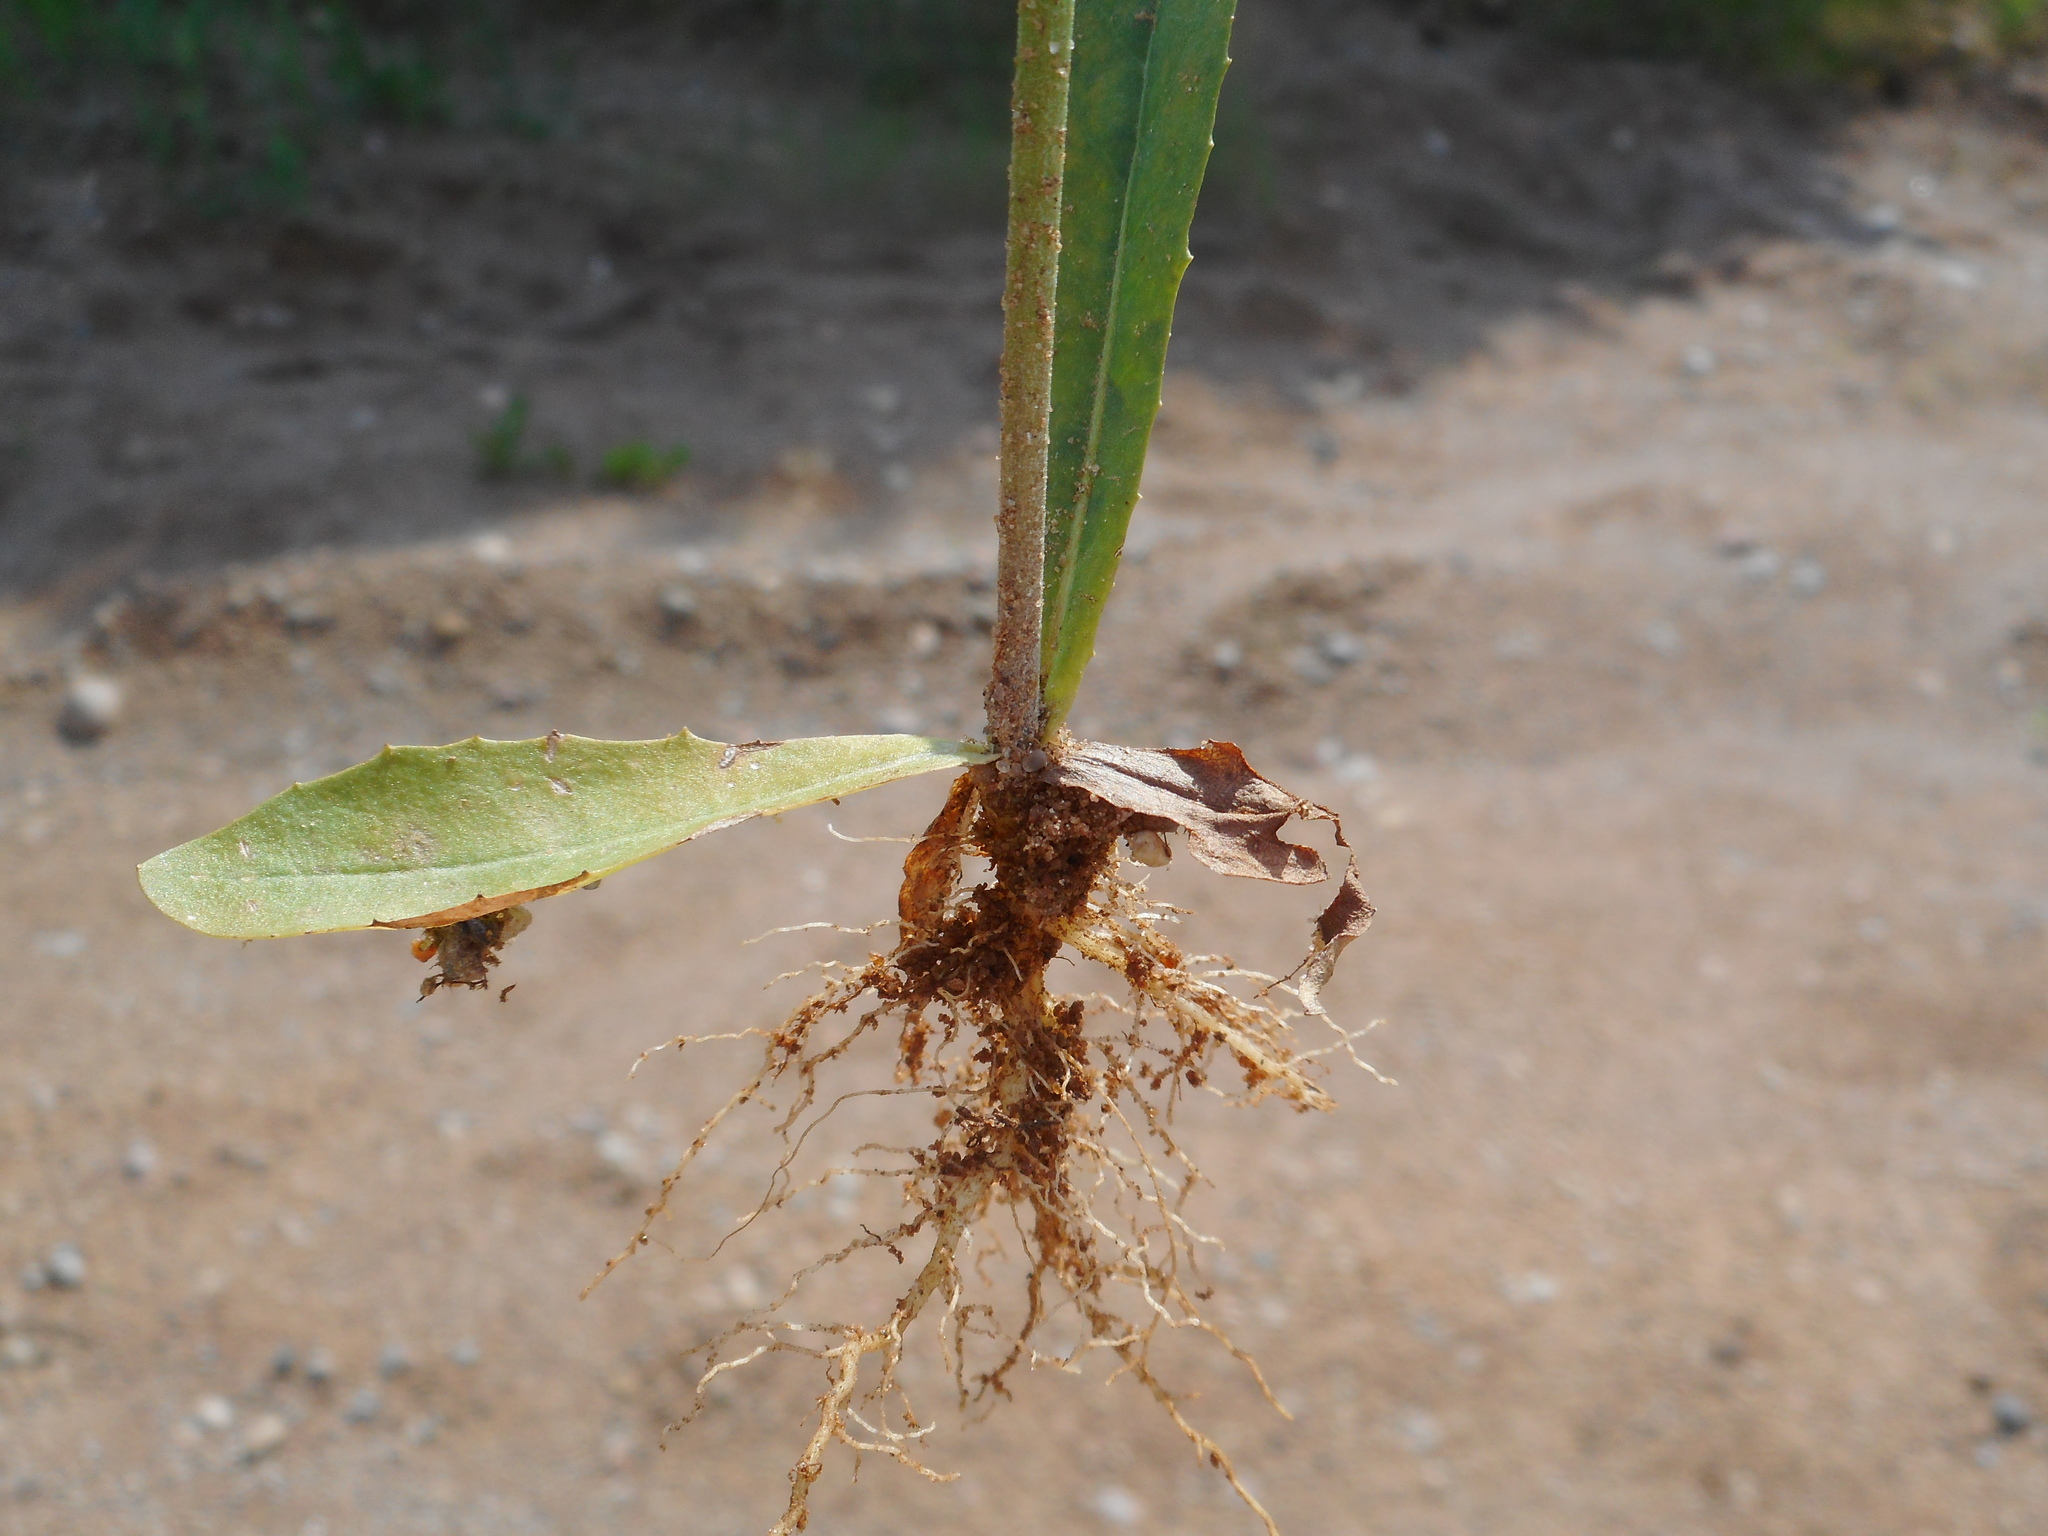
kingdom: Plantae
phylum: Tracheophyta
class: Magnoliopsida
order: Asterales
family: Asteraceae
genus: Crepis
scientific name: Crepis tectorum
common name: Narrow-leaved hawk's-beard
